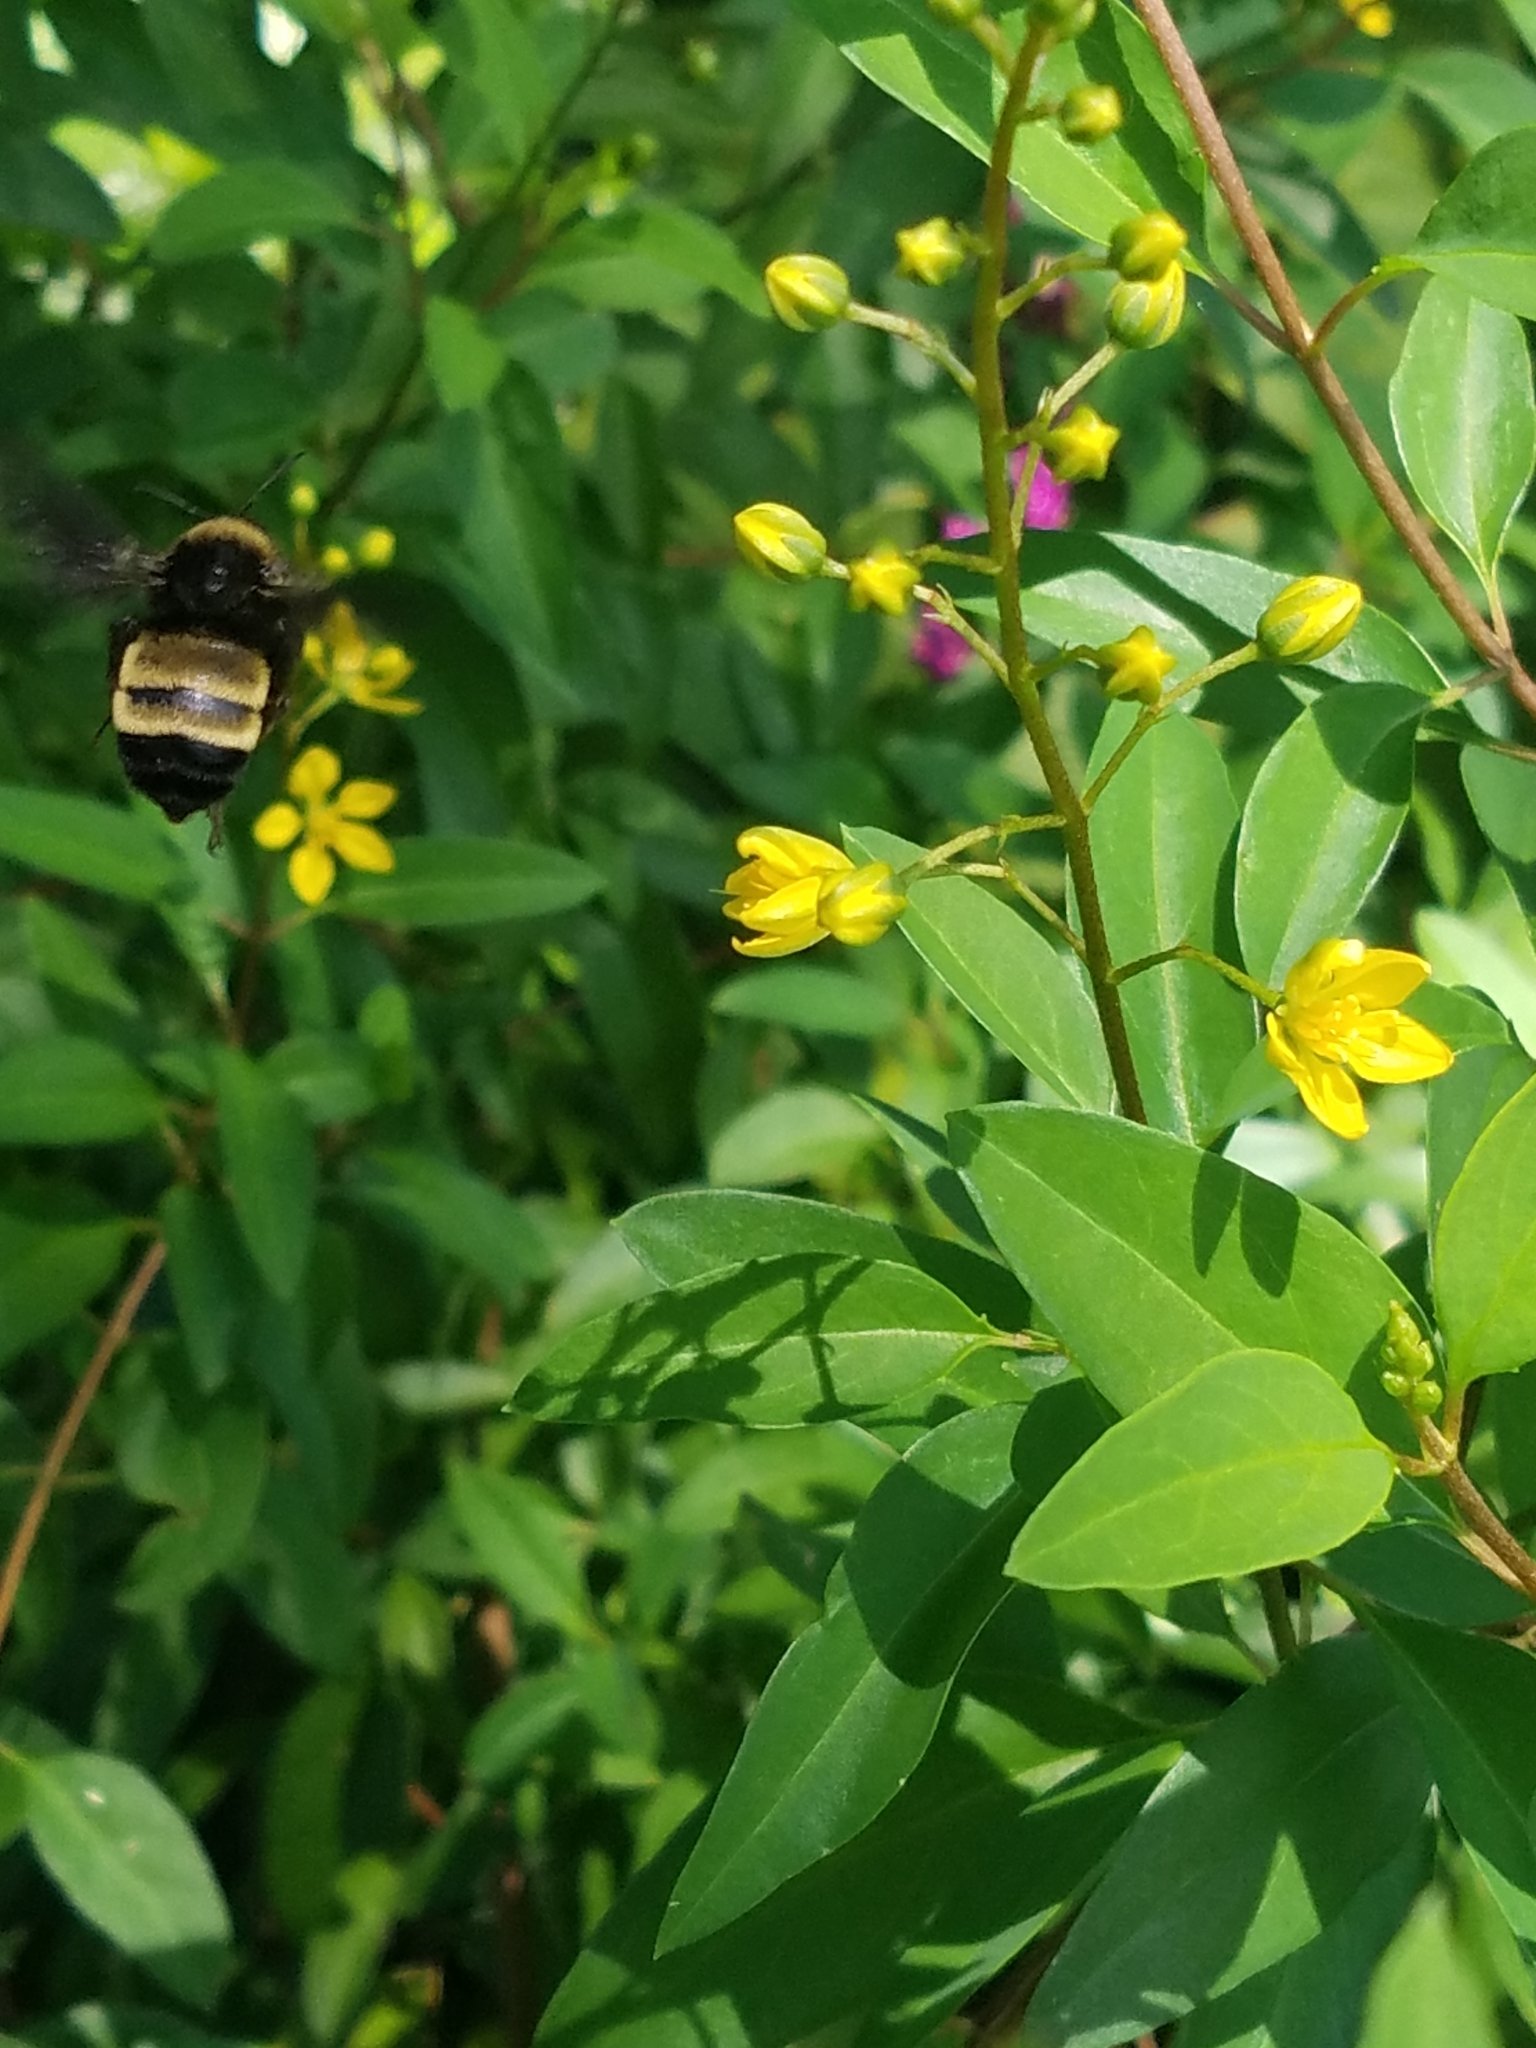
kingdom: Animalia
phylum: Arthropoda
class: Insecta
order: Hymenoptera
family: Apidae
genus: Bombus
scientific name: Bombus pensylvanicus
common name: Bumble bee
